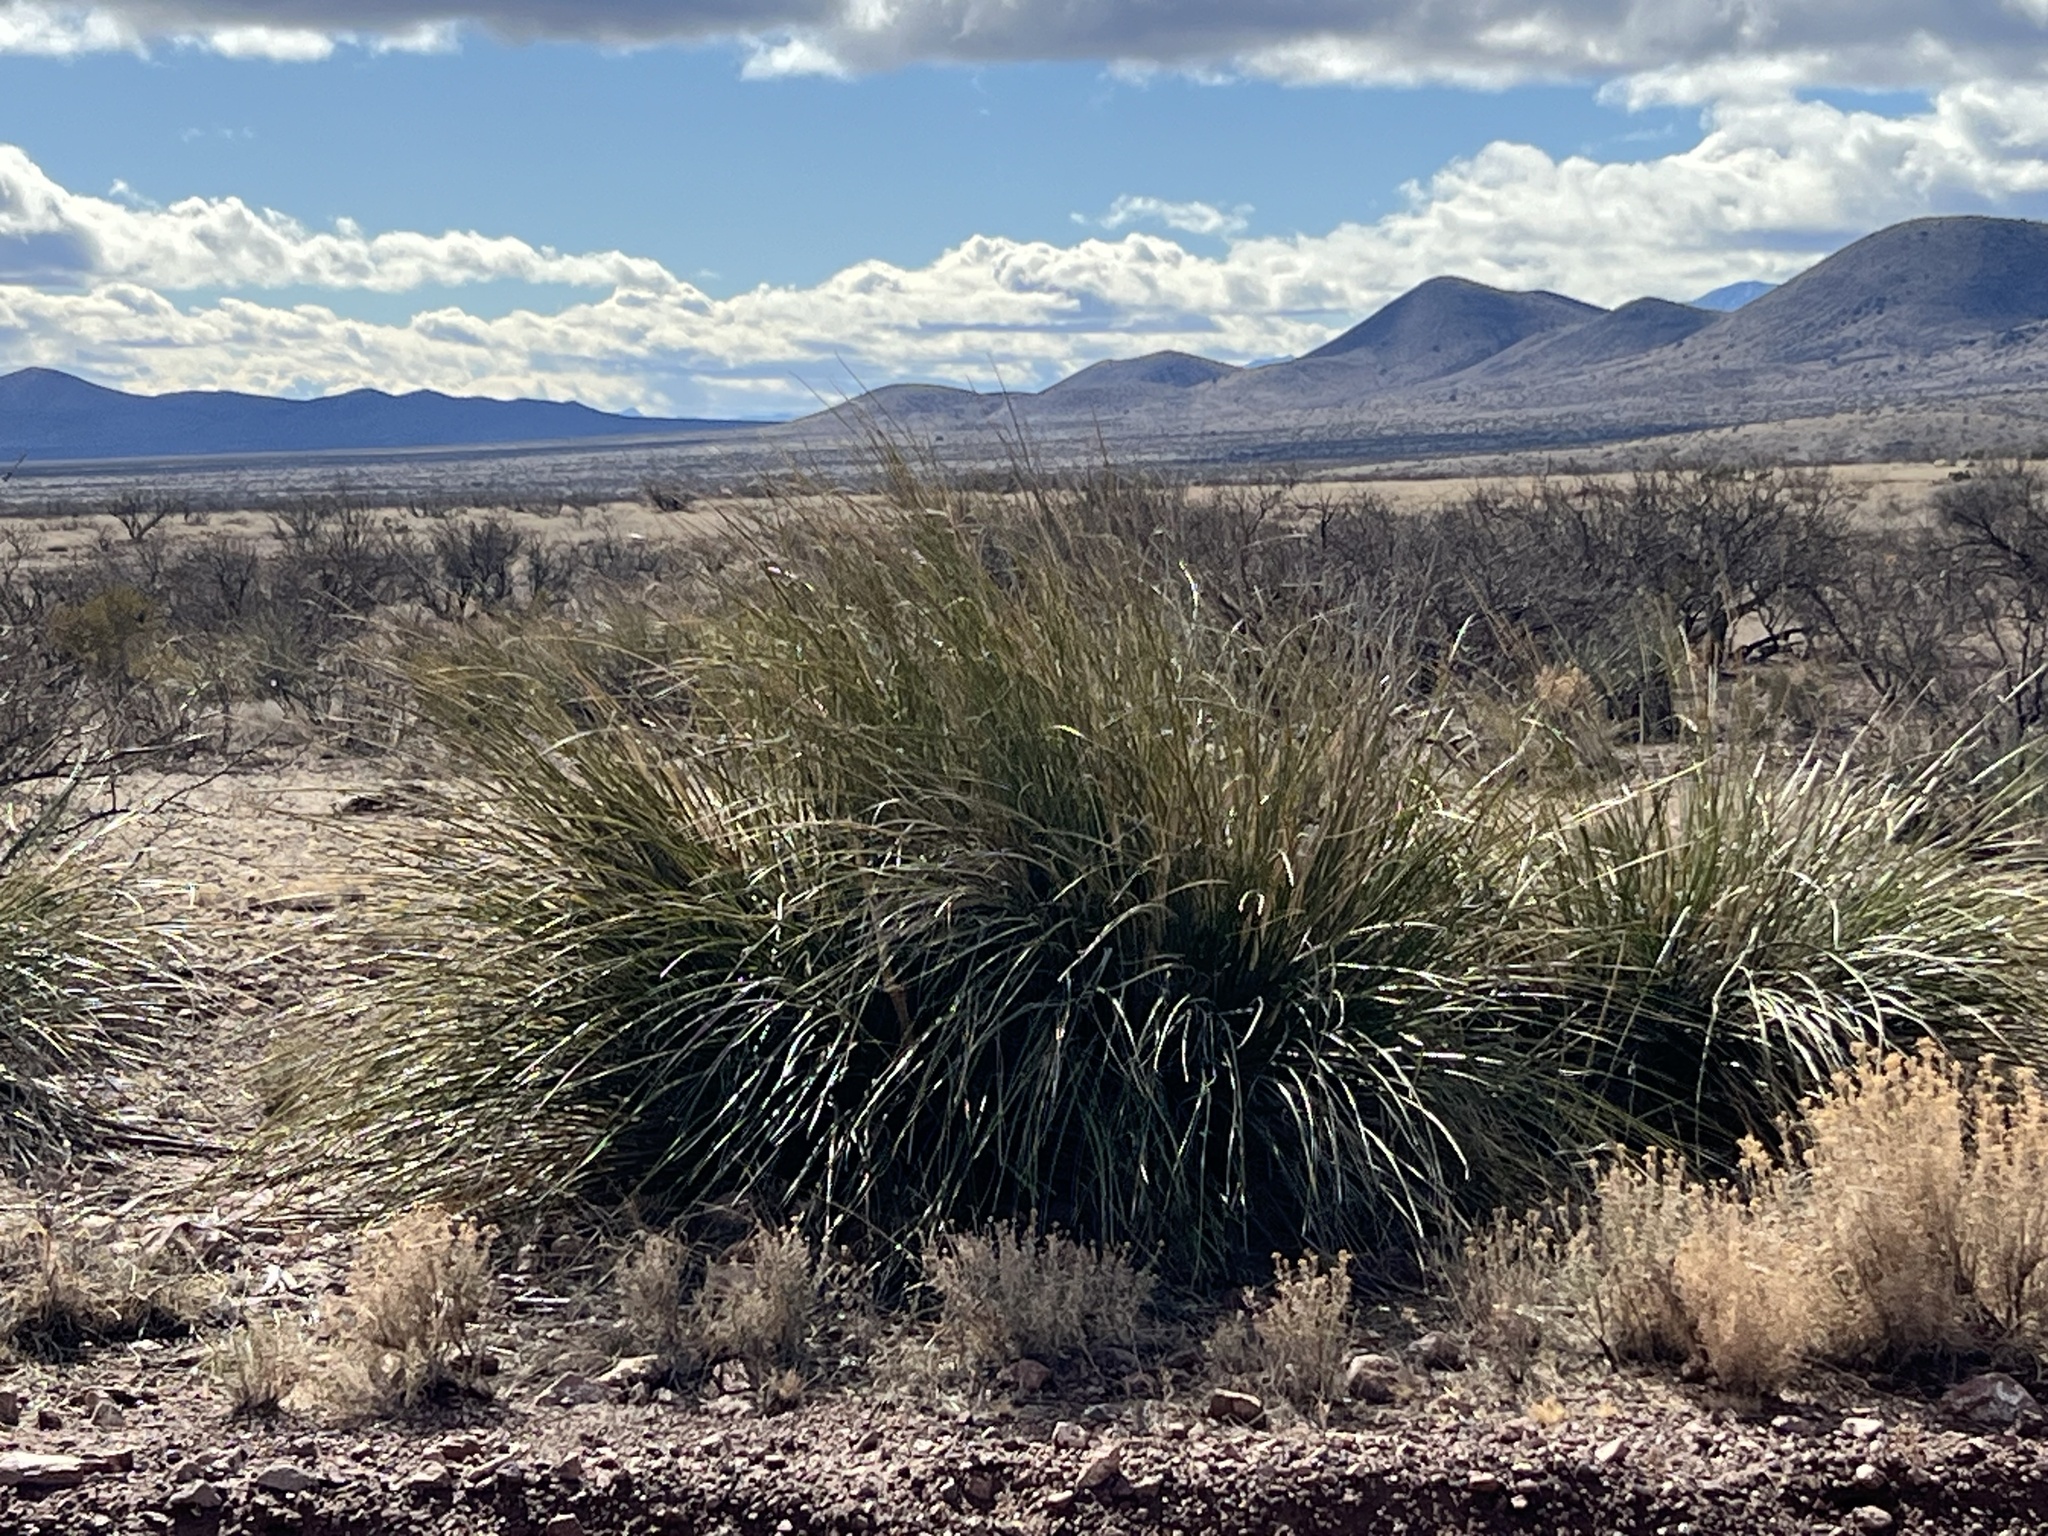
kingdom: Plantae
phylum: Tracheophyta
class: Liliopsida
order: Asparagales
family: Asparagaceae
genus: Nolina
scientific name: Nolina microcarpa
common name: Bear-grass
